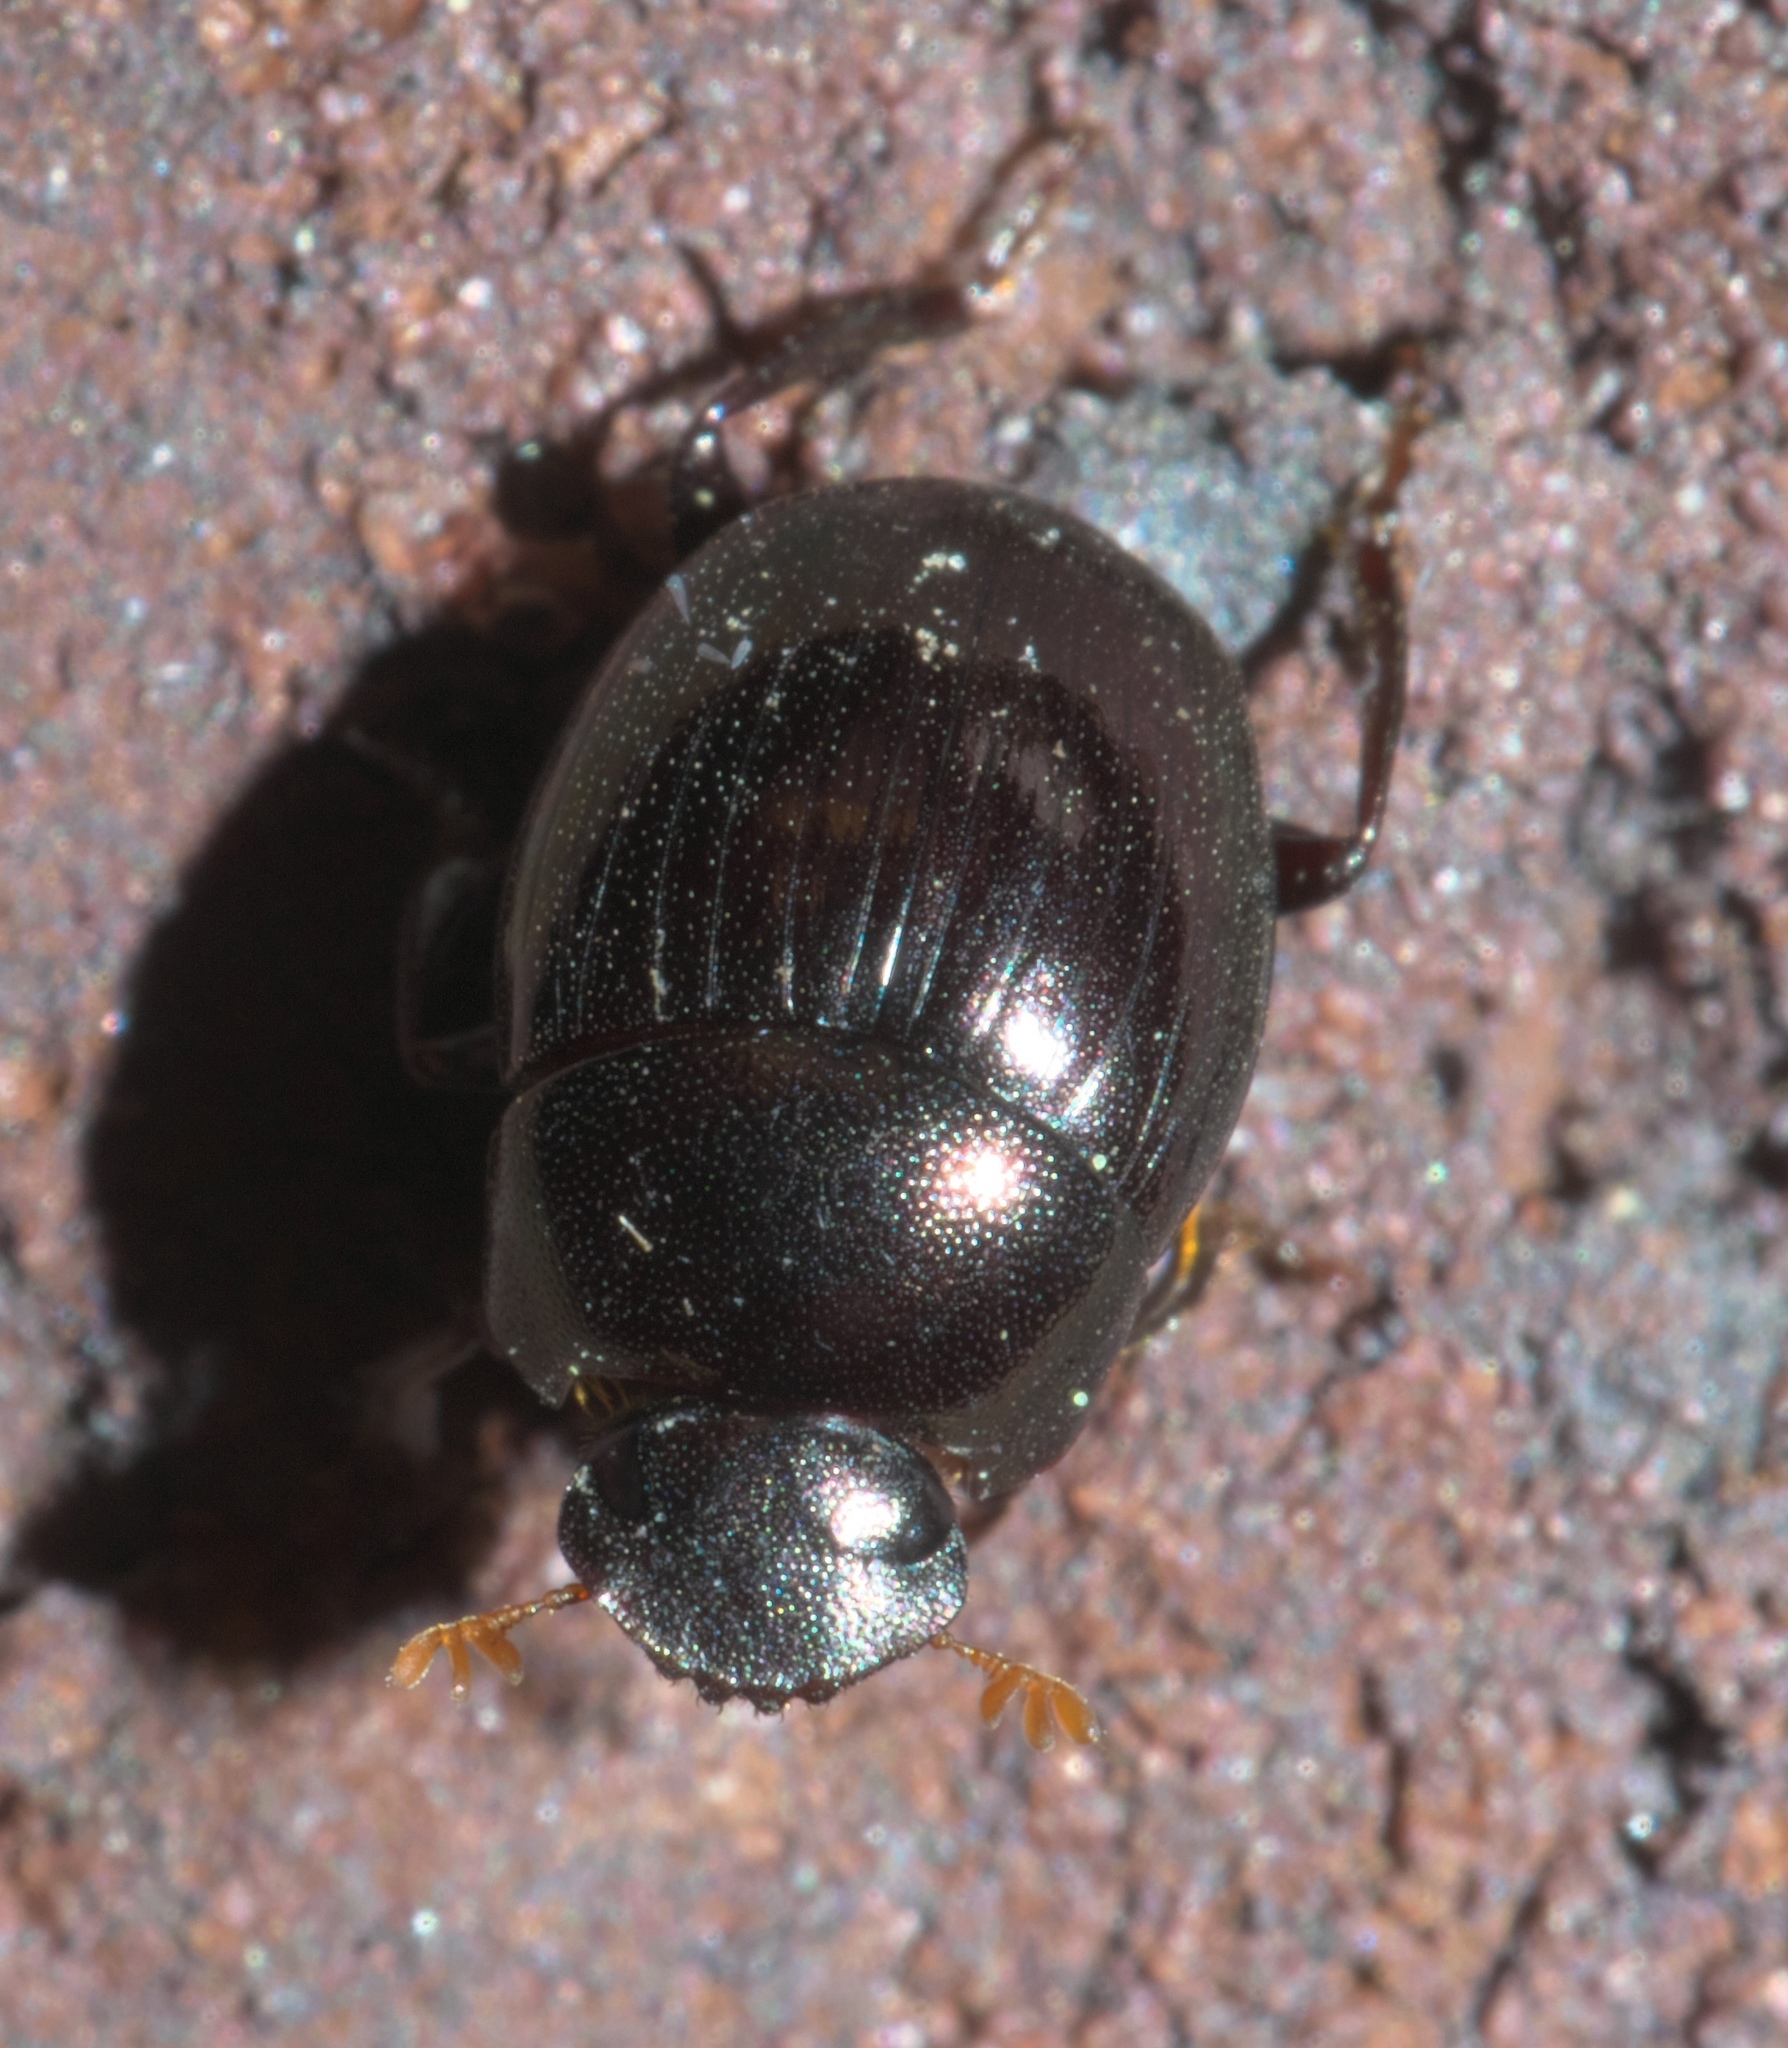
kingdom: Animalia
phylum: Arthropoda
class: Insecta
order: Coleoptera
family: Scarabaeidae
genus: Pseudocanthon
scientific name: Pseudocanthon perplexus
